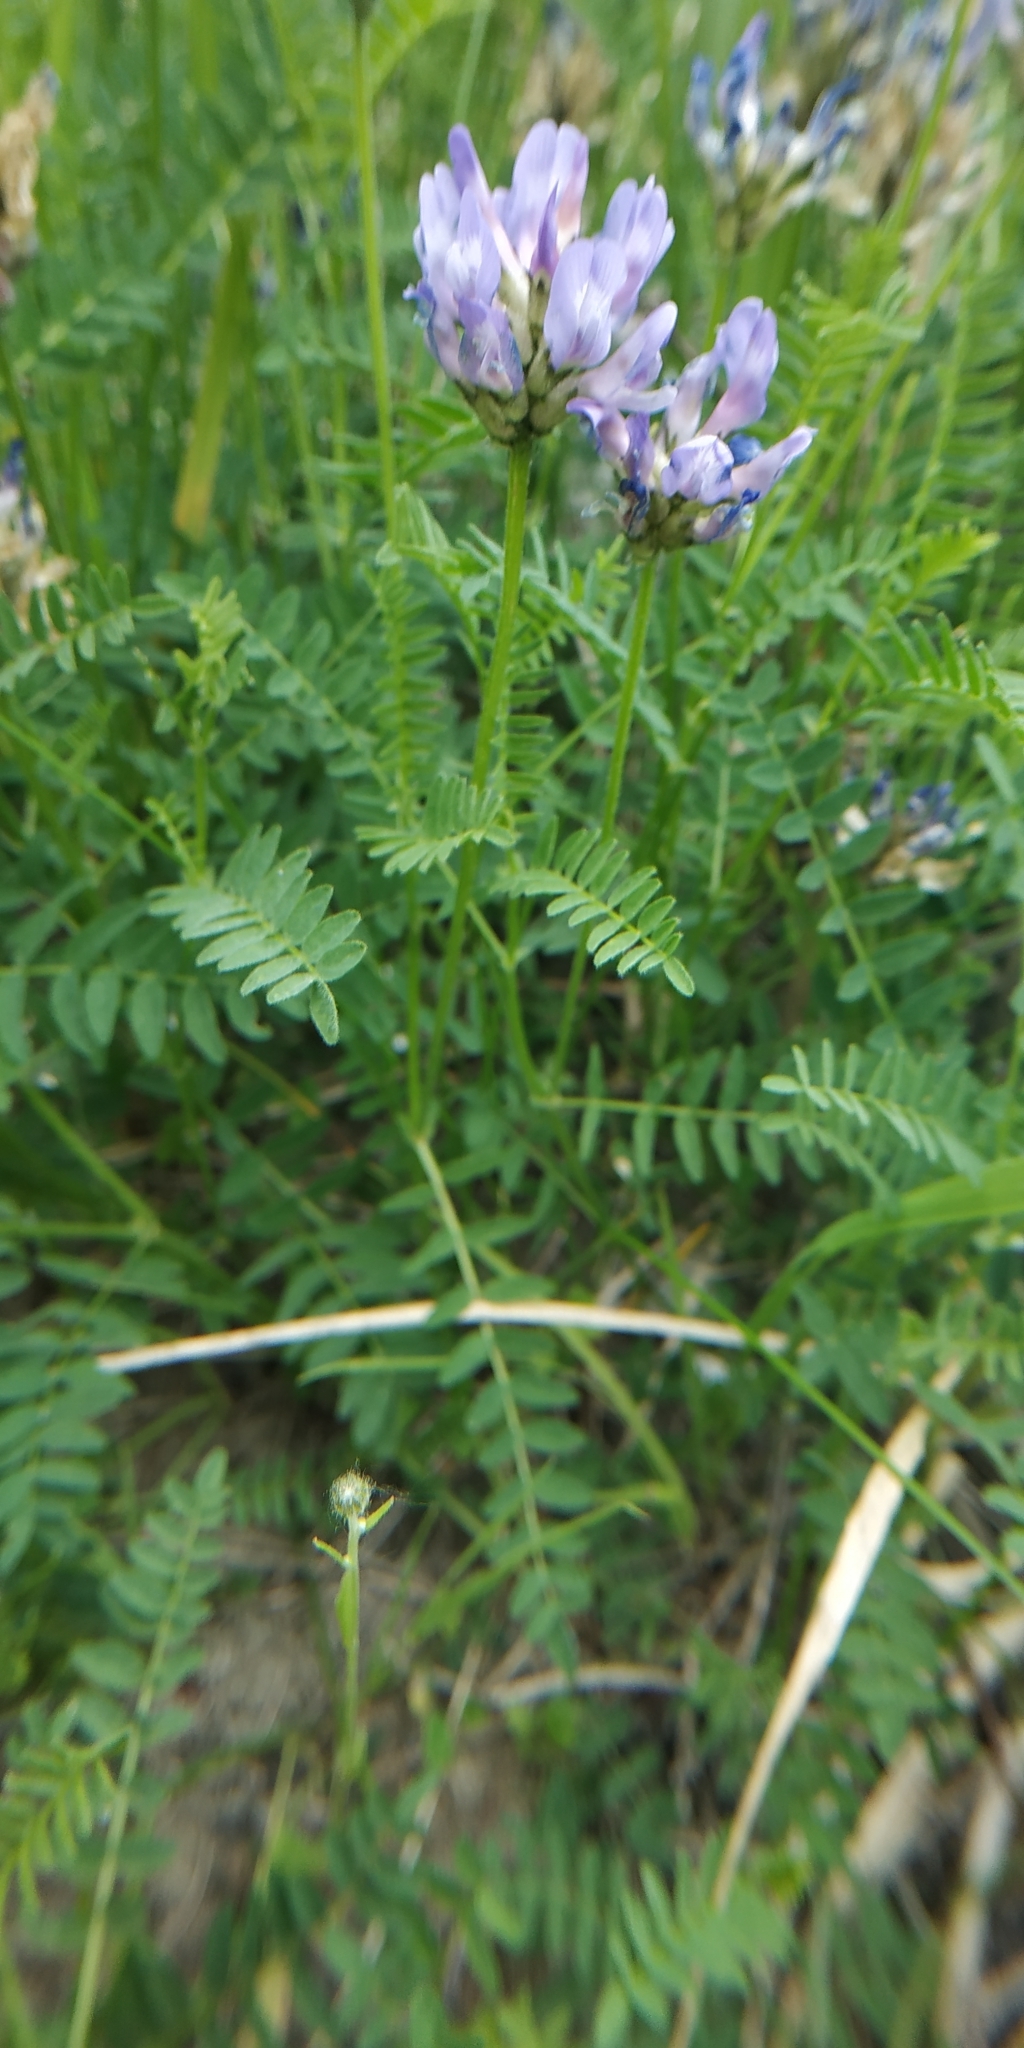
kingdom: Plantae
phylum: Tracheophyta
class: Magnoliopsida
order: Fabales
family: Fabaceae
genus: Astragalus
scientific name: Astragalus danicus
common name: Purple milk-vetch
